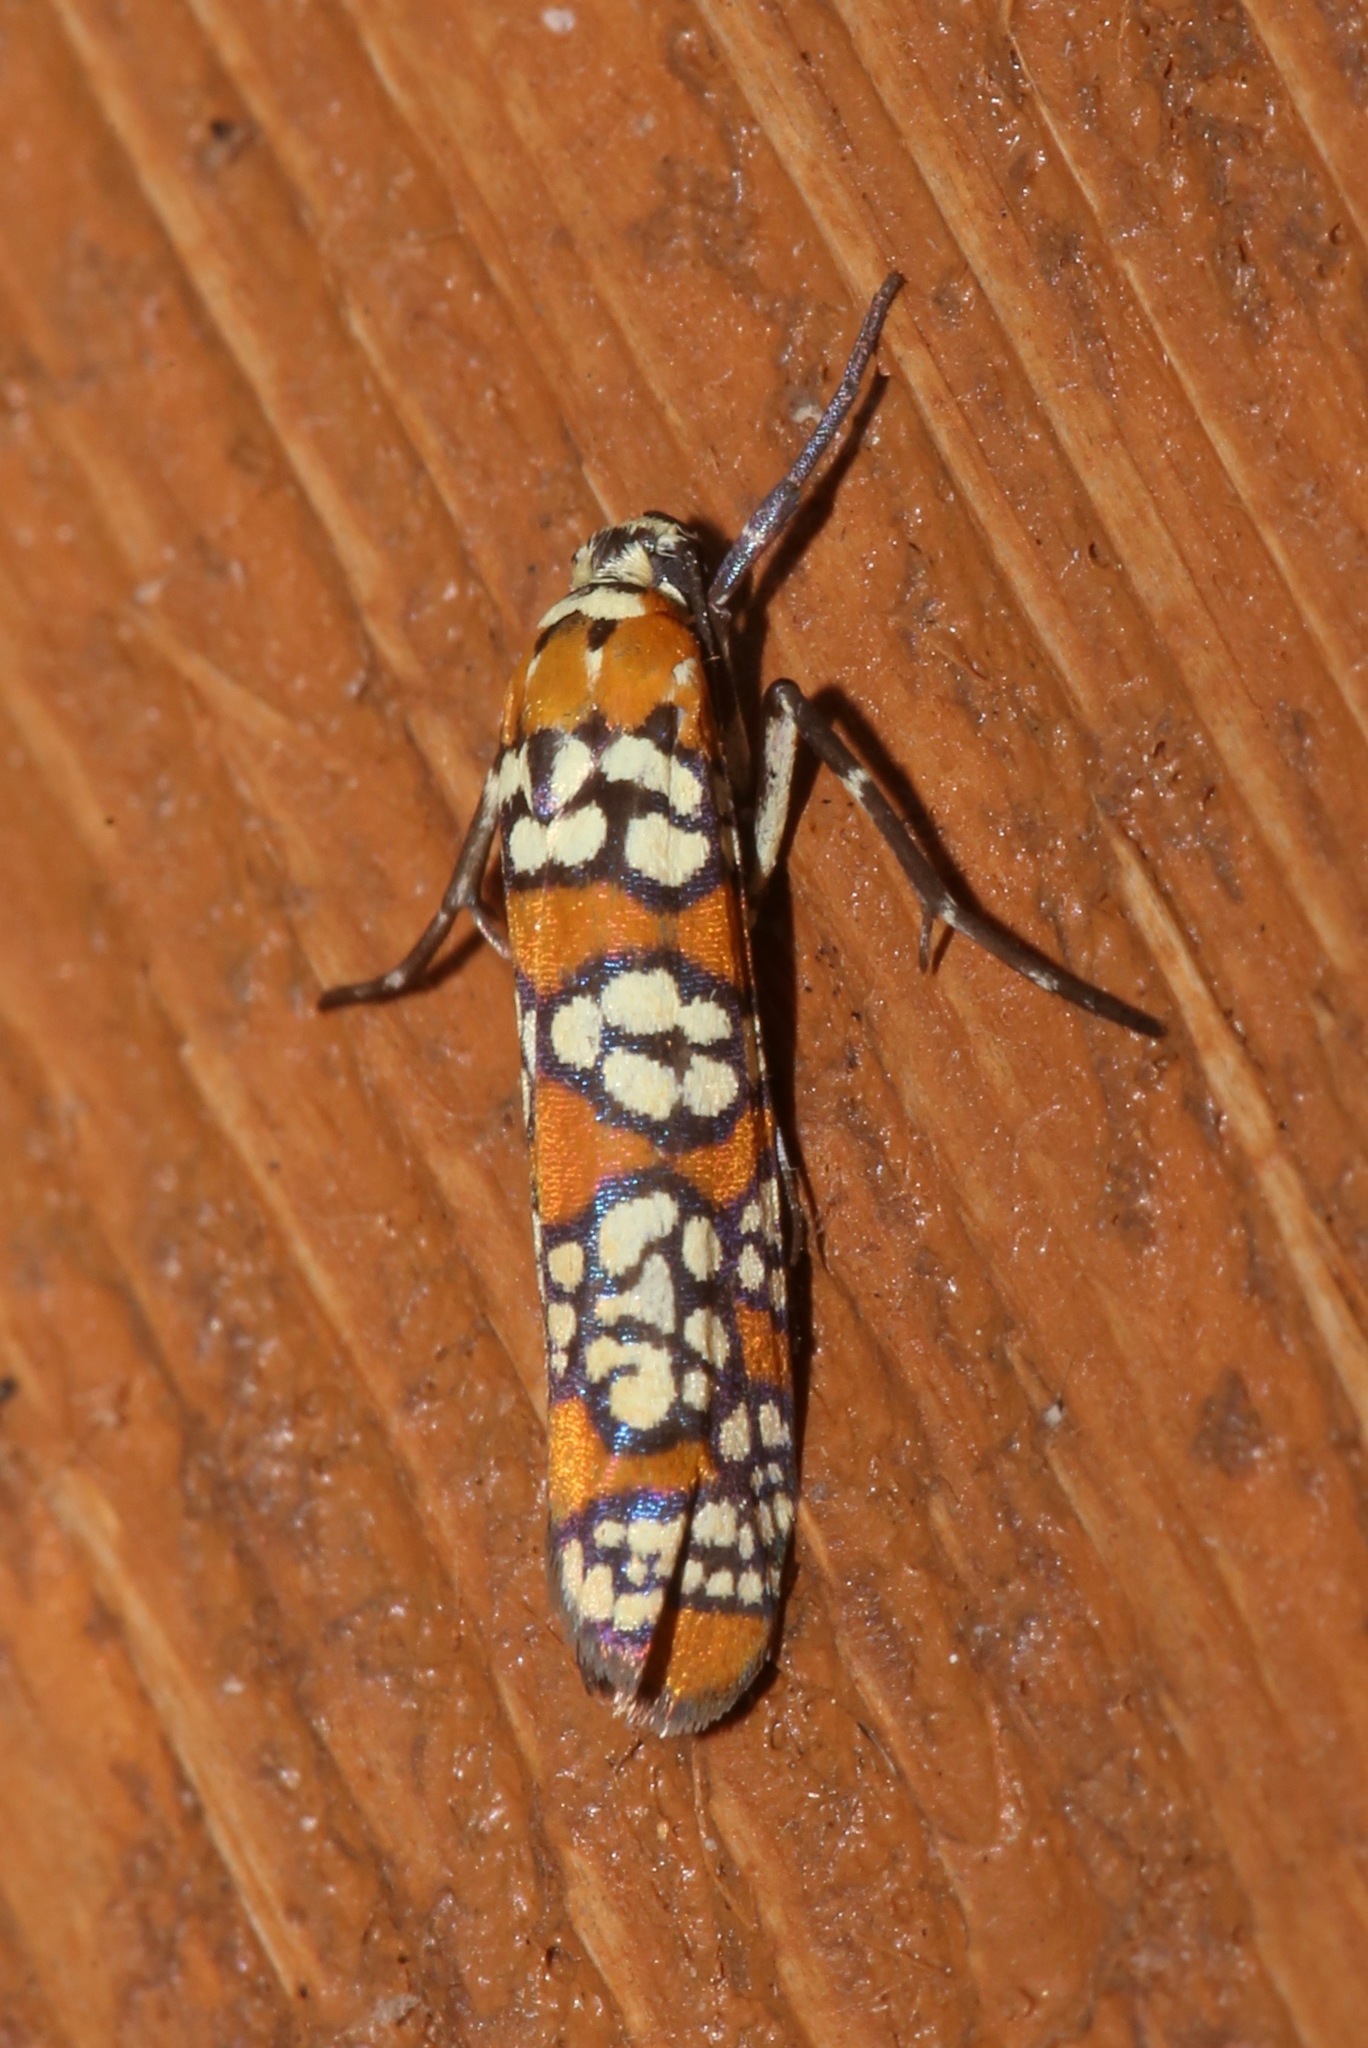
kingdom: Animalia
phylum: Arthropoda
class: Insecta
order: Lepidoptera
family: Attevidae
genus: Atteva
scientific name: Atteva punctella
